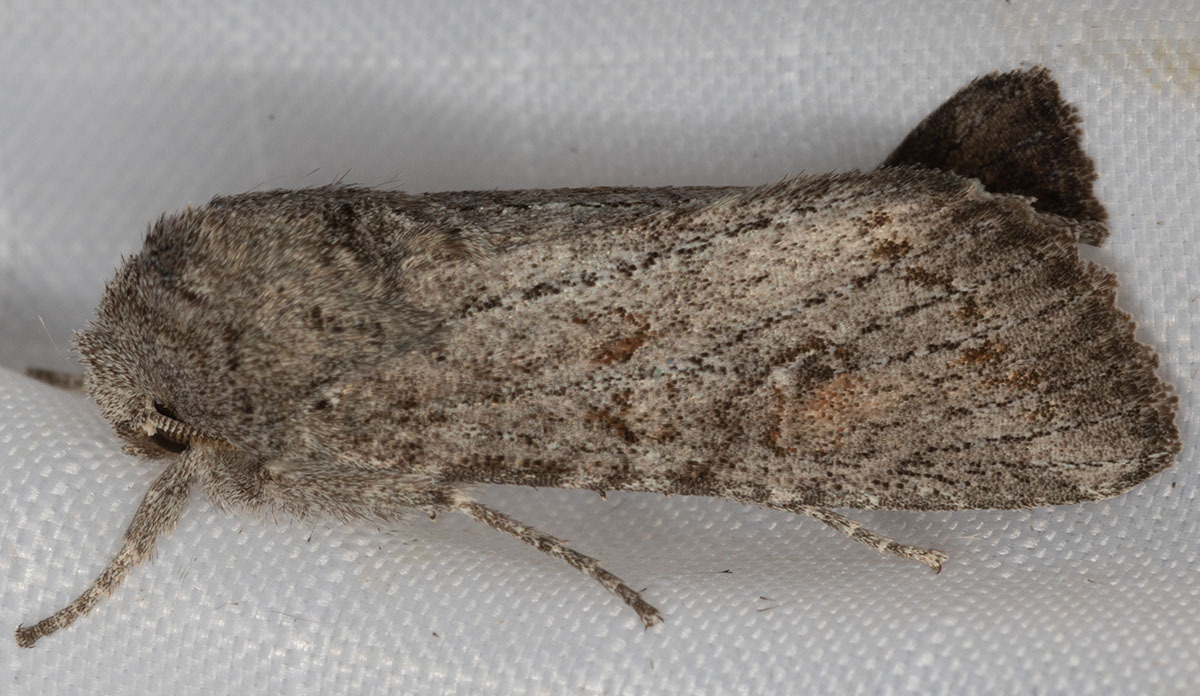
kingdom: Animalia
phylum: Arthropoda
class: Insecta
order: Lepidoptera
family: Noctuidae
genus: Egira
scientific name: Egira curialis
